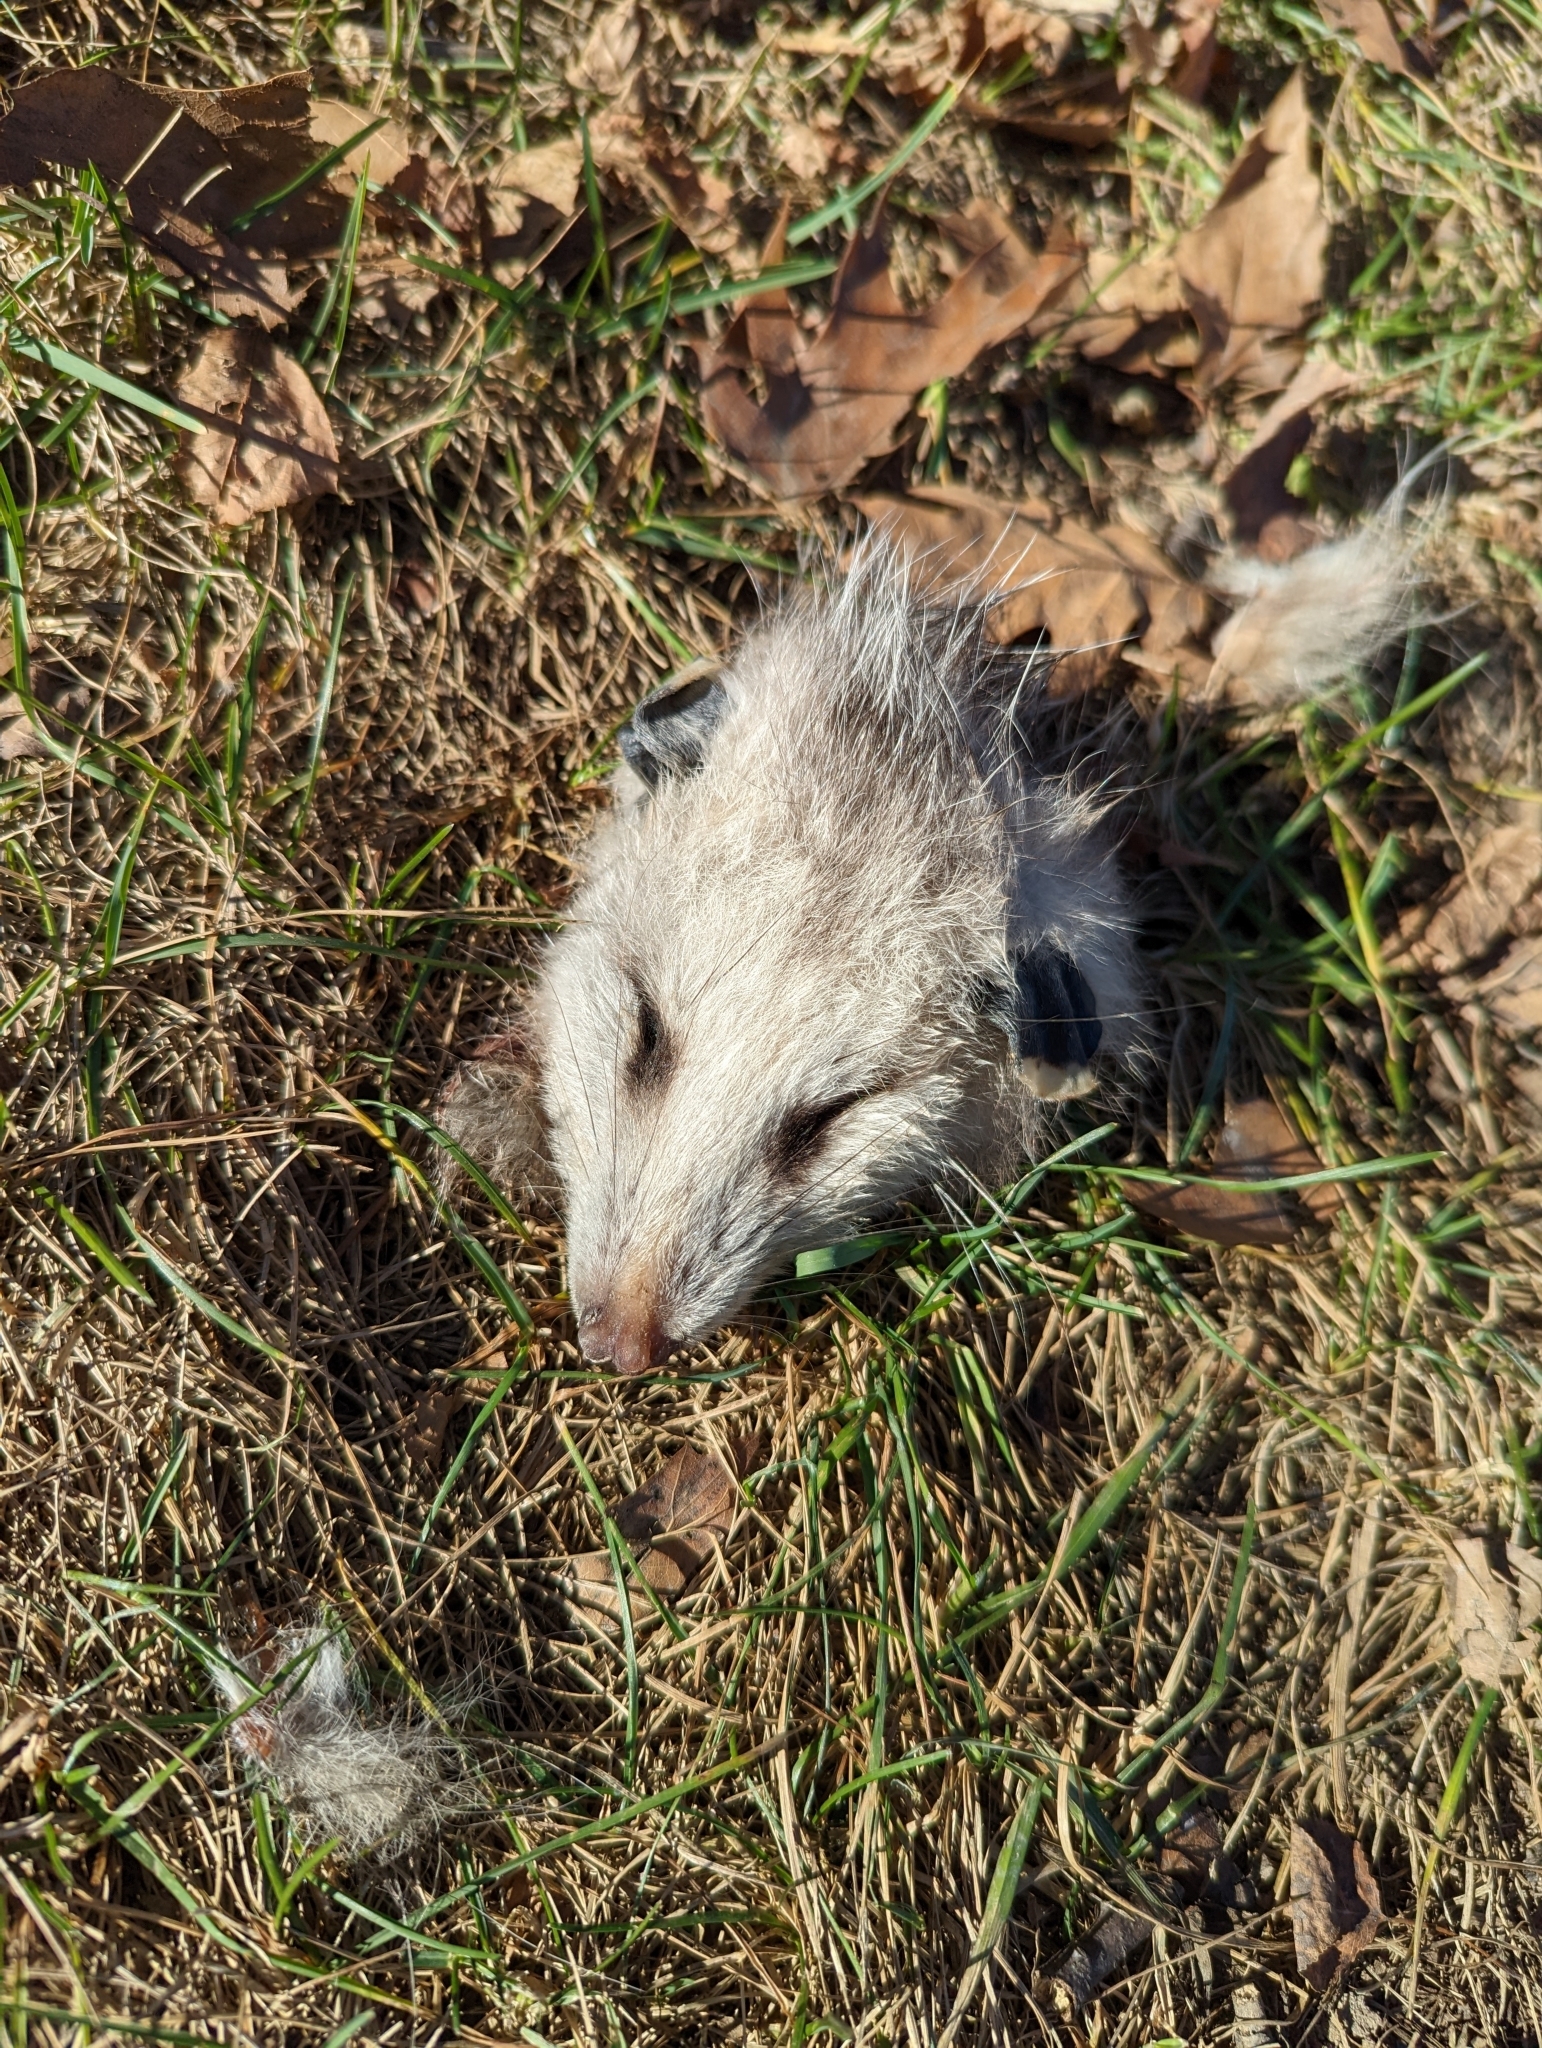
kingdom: Animalia
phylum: Chordata
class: Mammalia
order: Didelphimorphia
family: Didelphidae
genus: Didelphis
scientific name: Didelphis virginiana
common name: Virginia opossum
